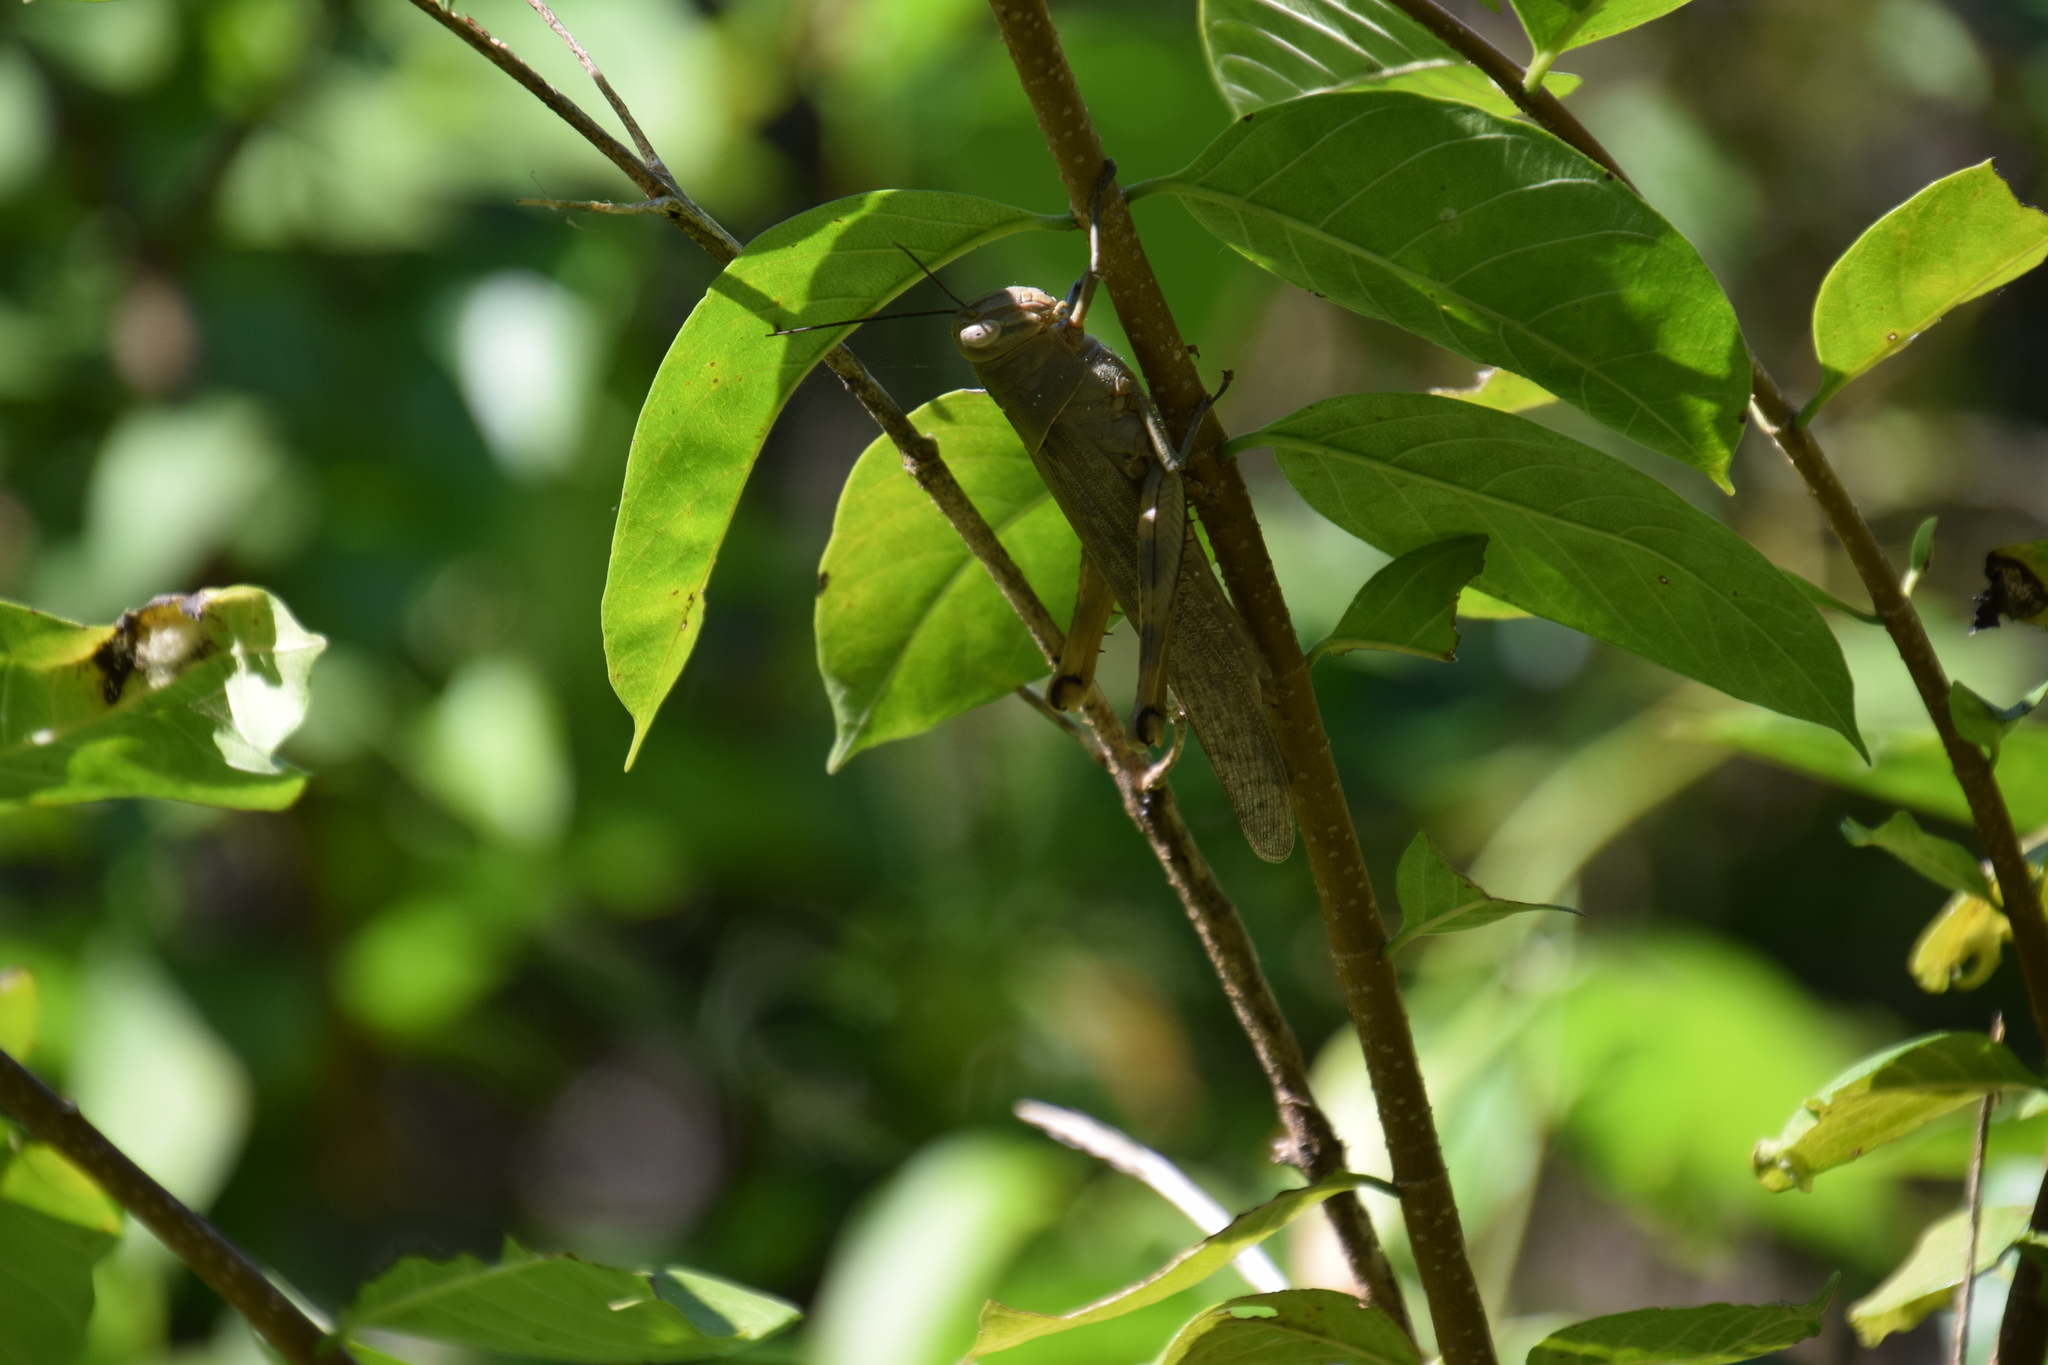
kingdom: Animalia
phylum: Arthropoda
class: Insecta
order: Orthoptera
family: Acrididae
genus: Valanga
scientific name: Valanga irregularis
